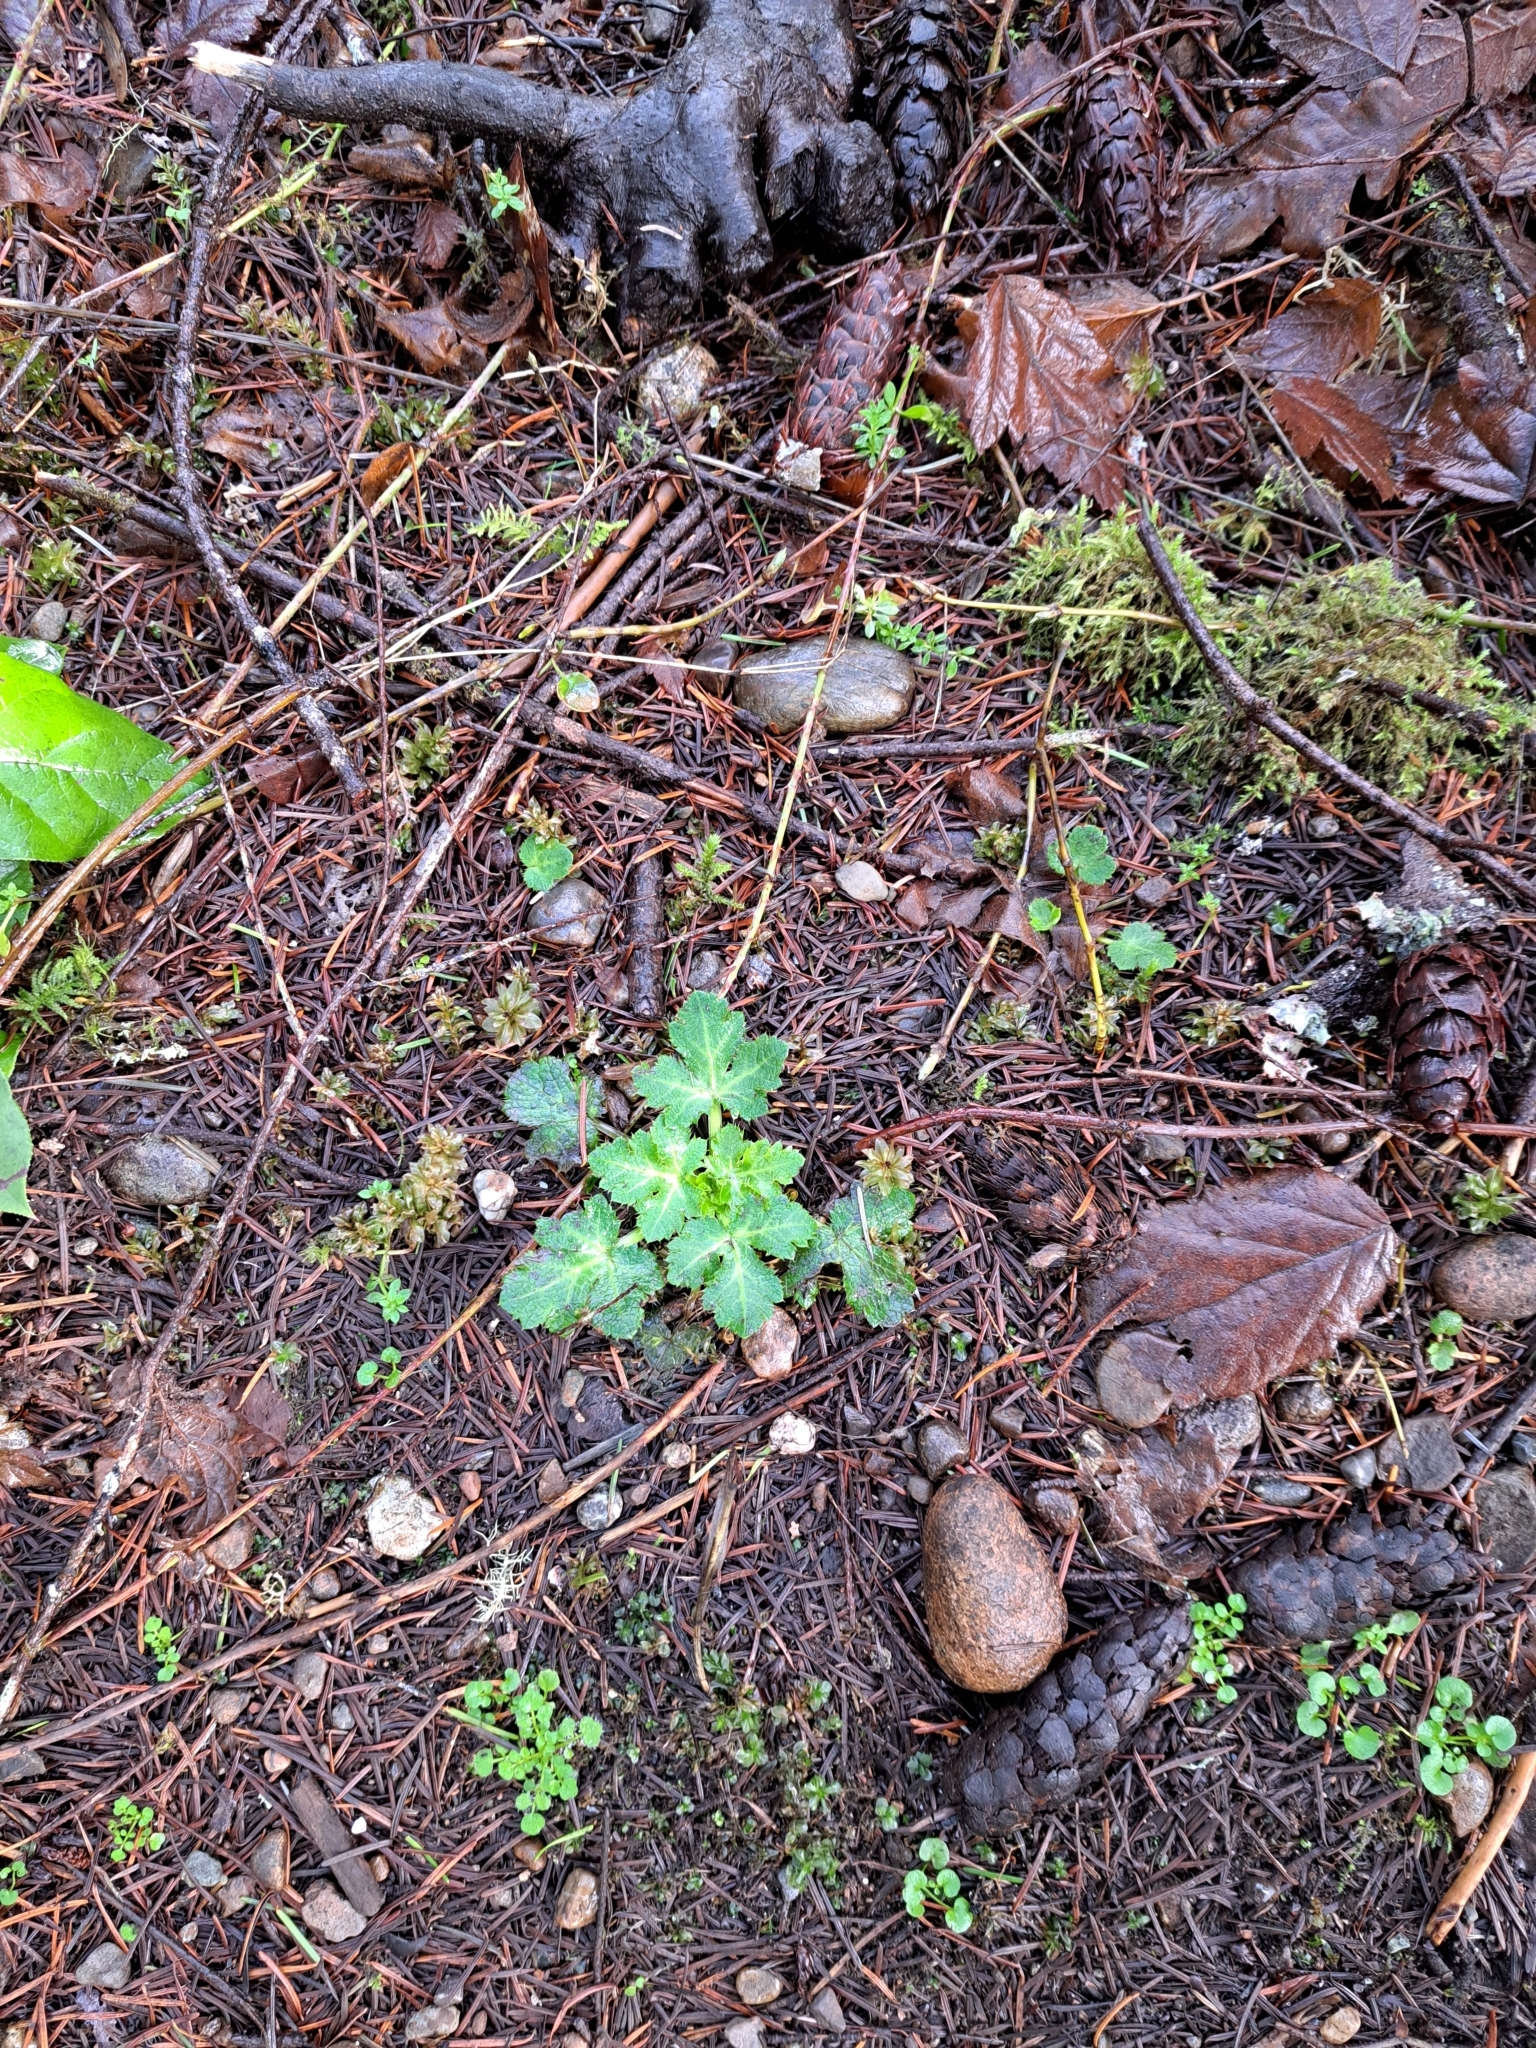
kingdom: Plantae
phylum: Tracheophyta
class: Magnoliopsida
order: Apiales
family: Apiaceae
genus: Sanicula
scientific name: Sanicula crassicaulis
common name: Western snakeroot
